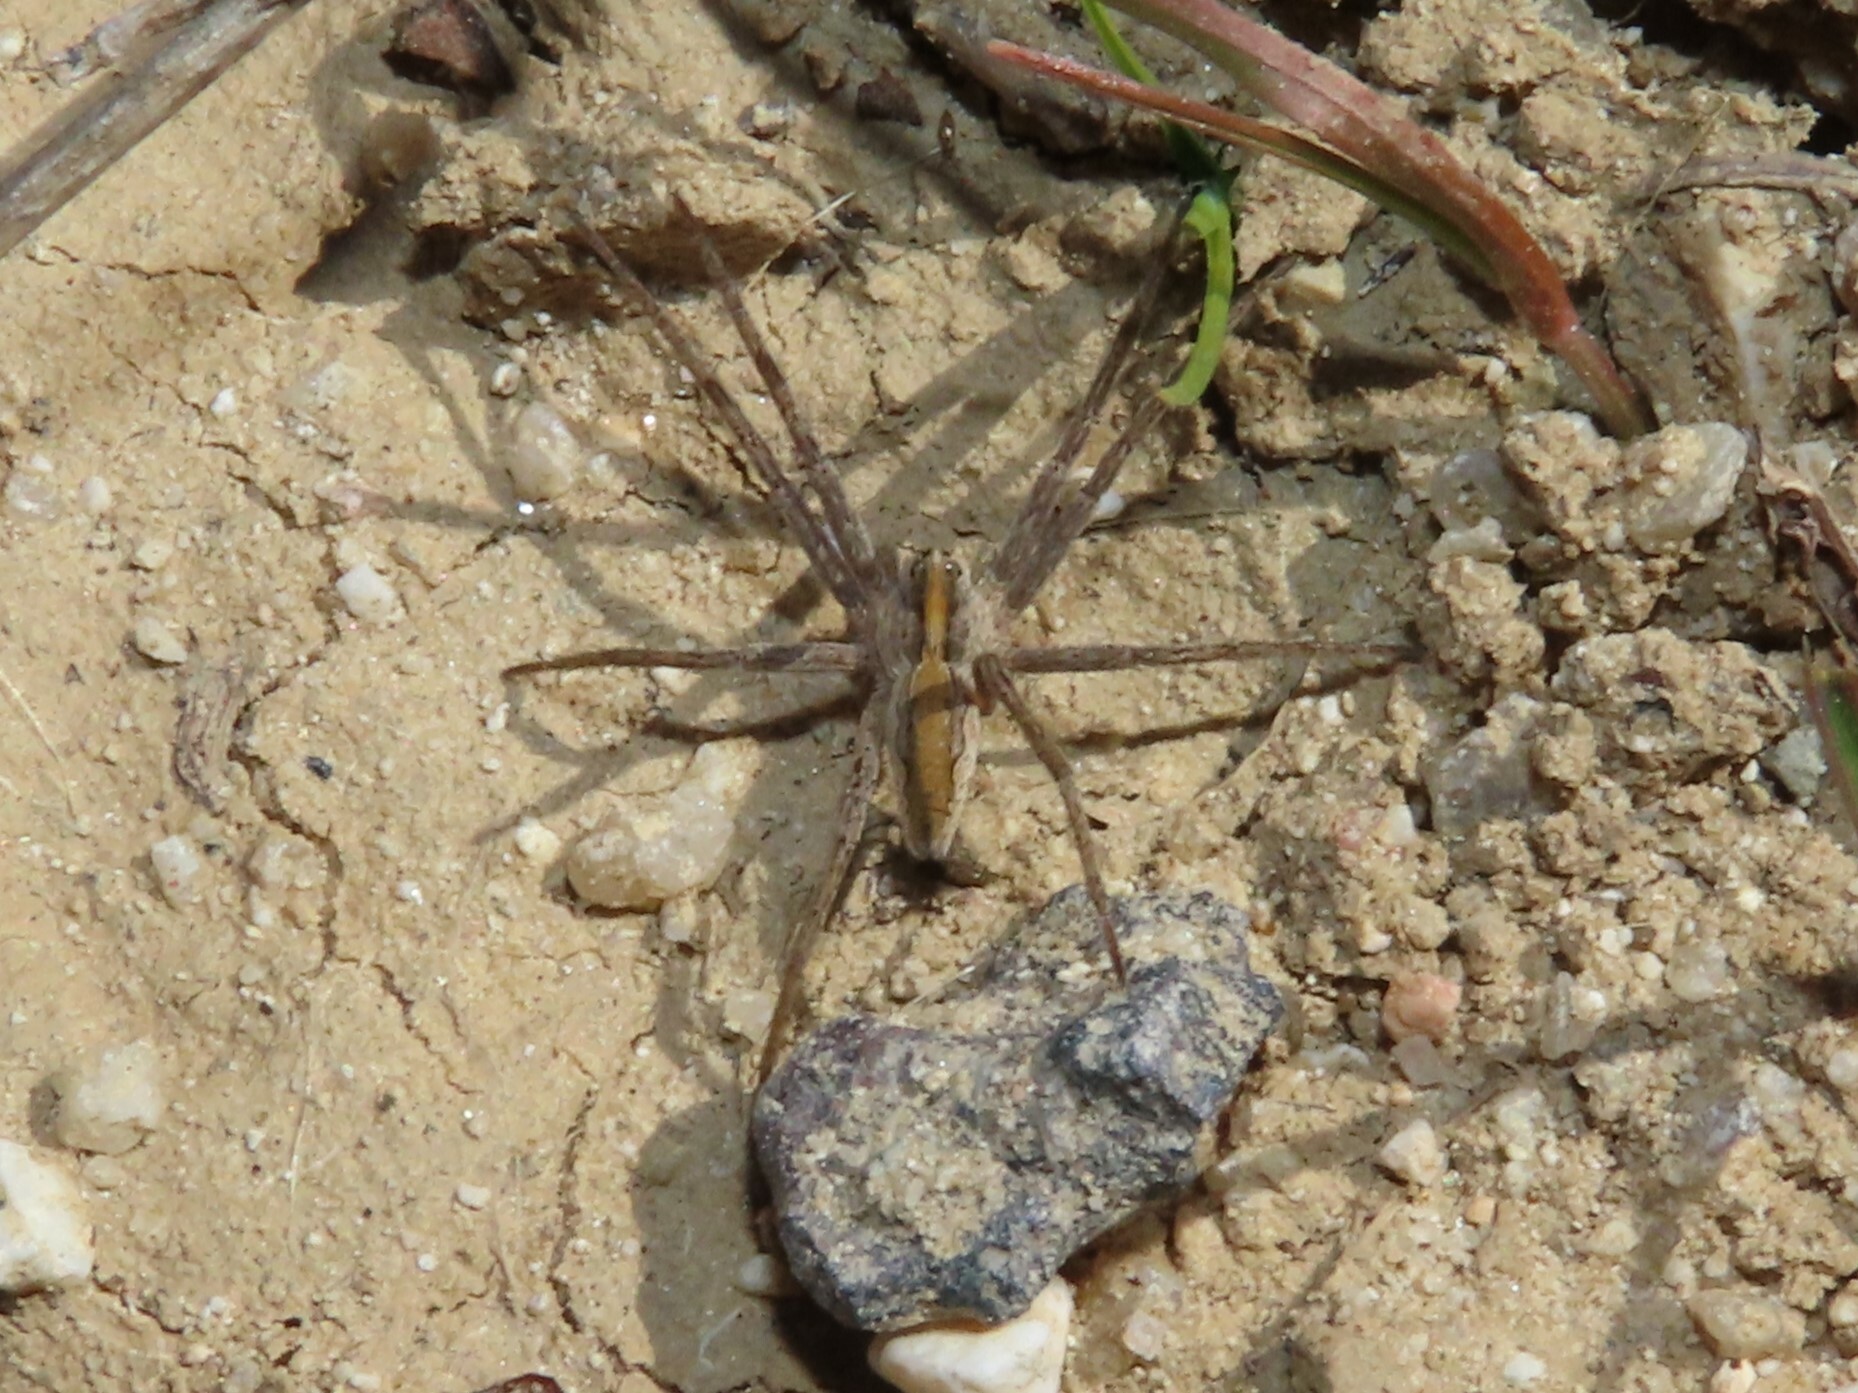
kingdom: Animalia
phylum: Arthropoda
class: Arachnida
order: Araneae
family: Pisauridae
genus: Pisaura
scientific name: Pisaura mirabilis
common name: Tent spider
